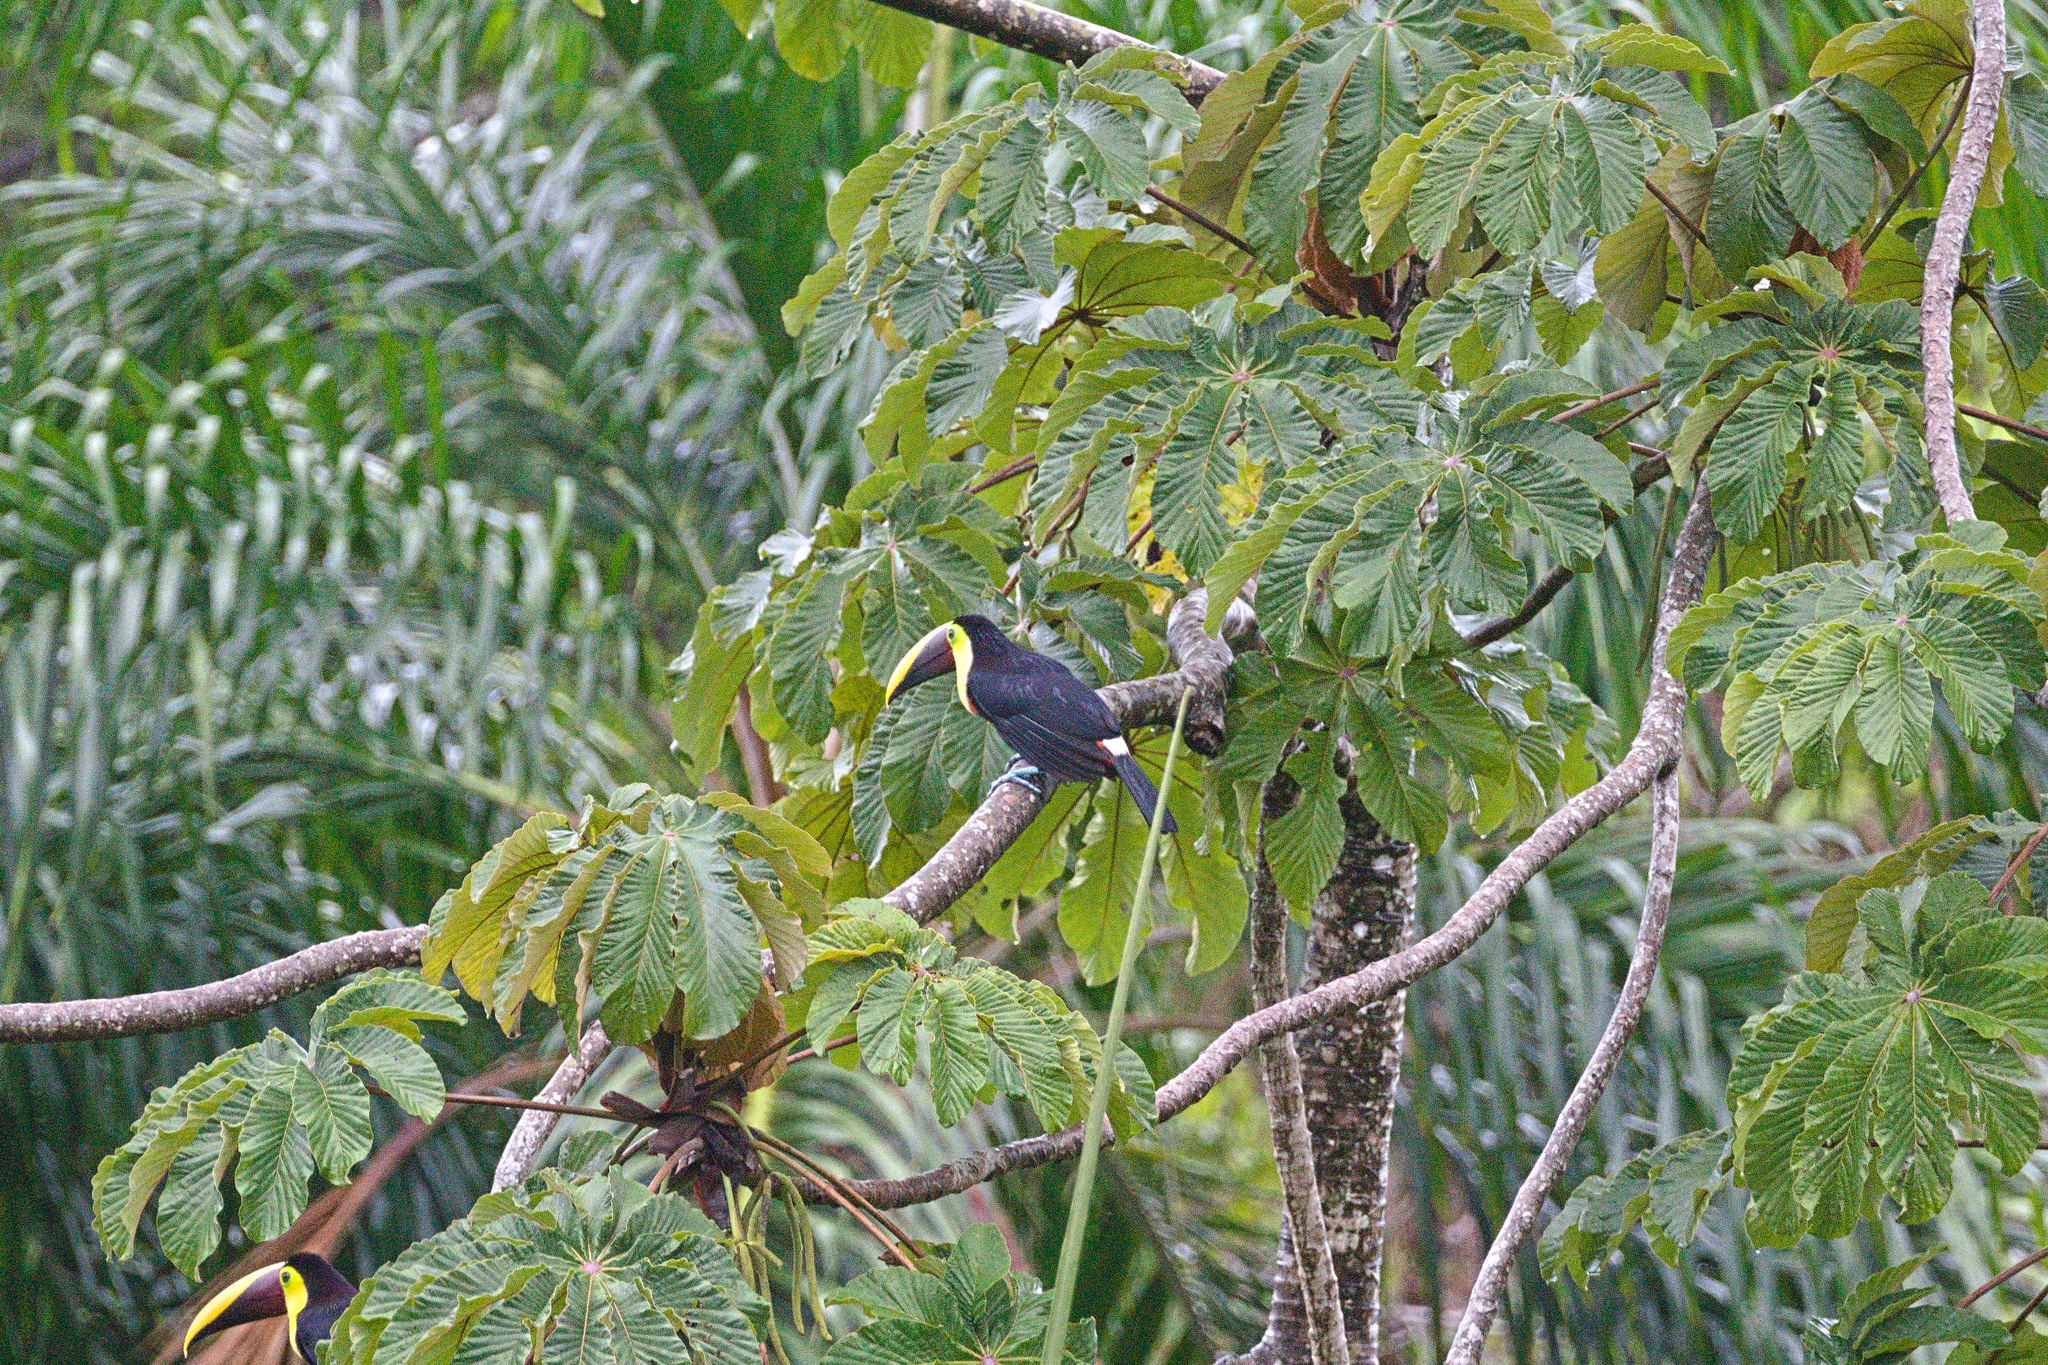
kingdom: Animalia
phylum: Chordata
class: Aves
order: Piciformes
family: Ramphastidae
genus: Ramphastos
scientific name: Ramphastos ambiguus
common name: Yellow-throated toucan
